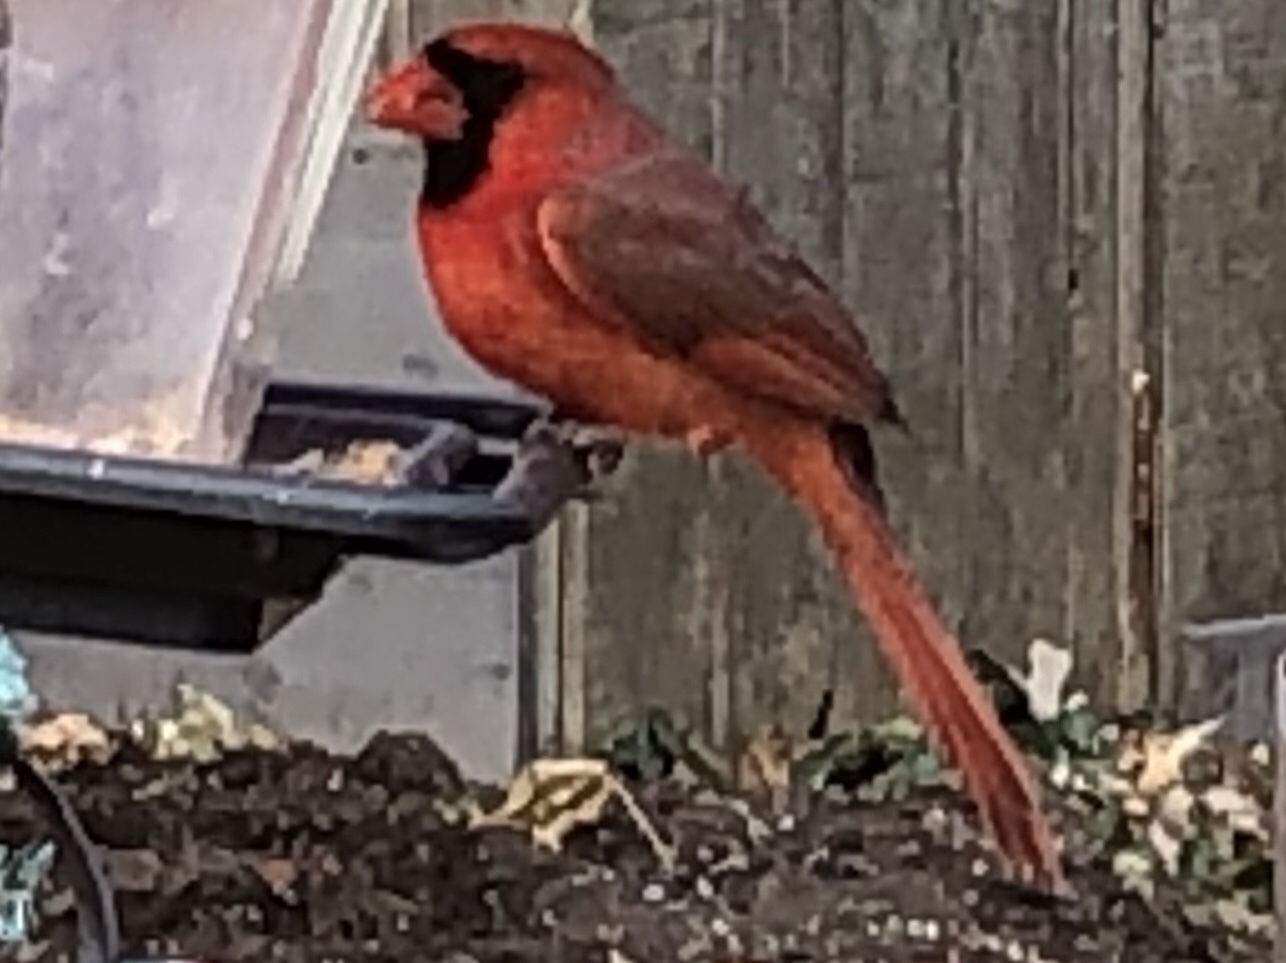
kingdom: Animalia
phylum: Chordata
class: Aves
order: Passeriformes
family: Cardinalidae
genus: Cardinalis
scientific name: Cardinalis cardinalis
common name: Northern cardinal
